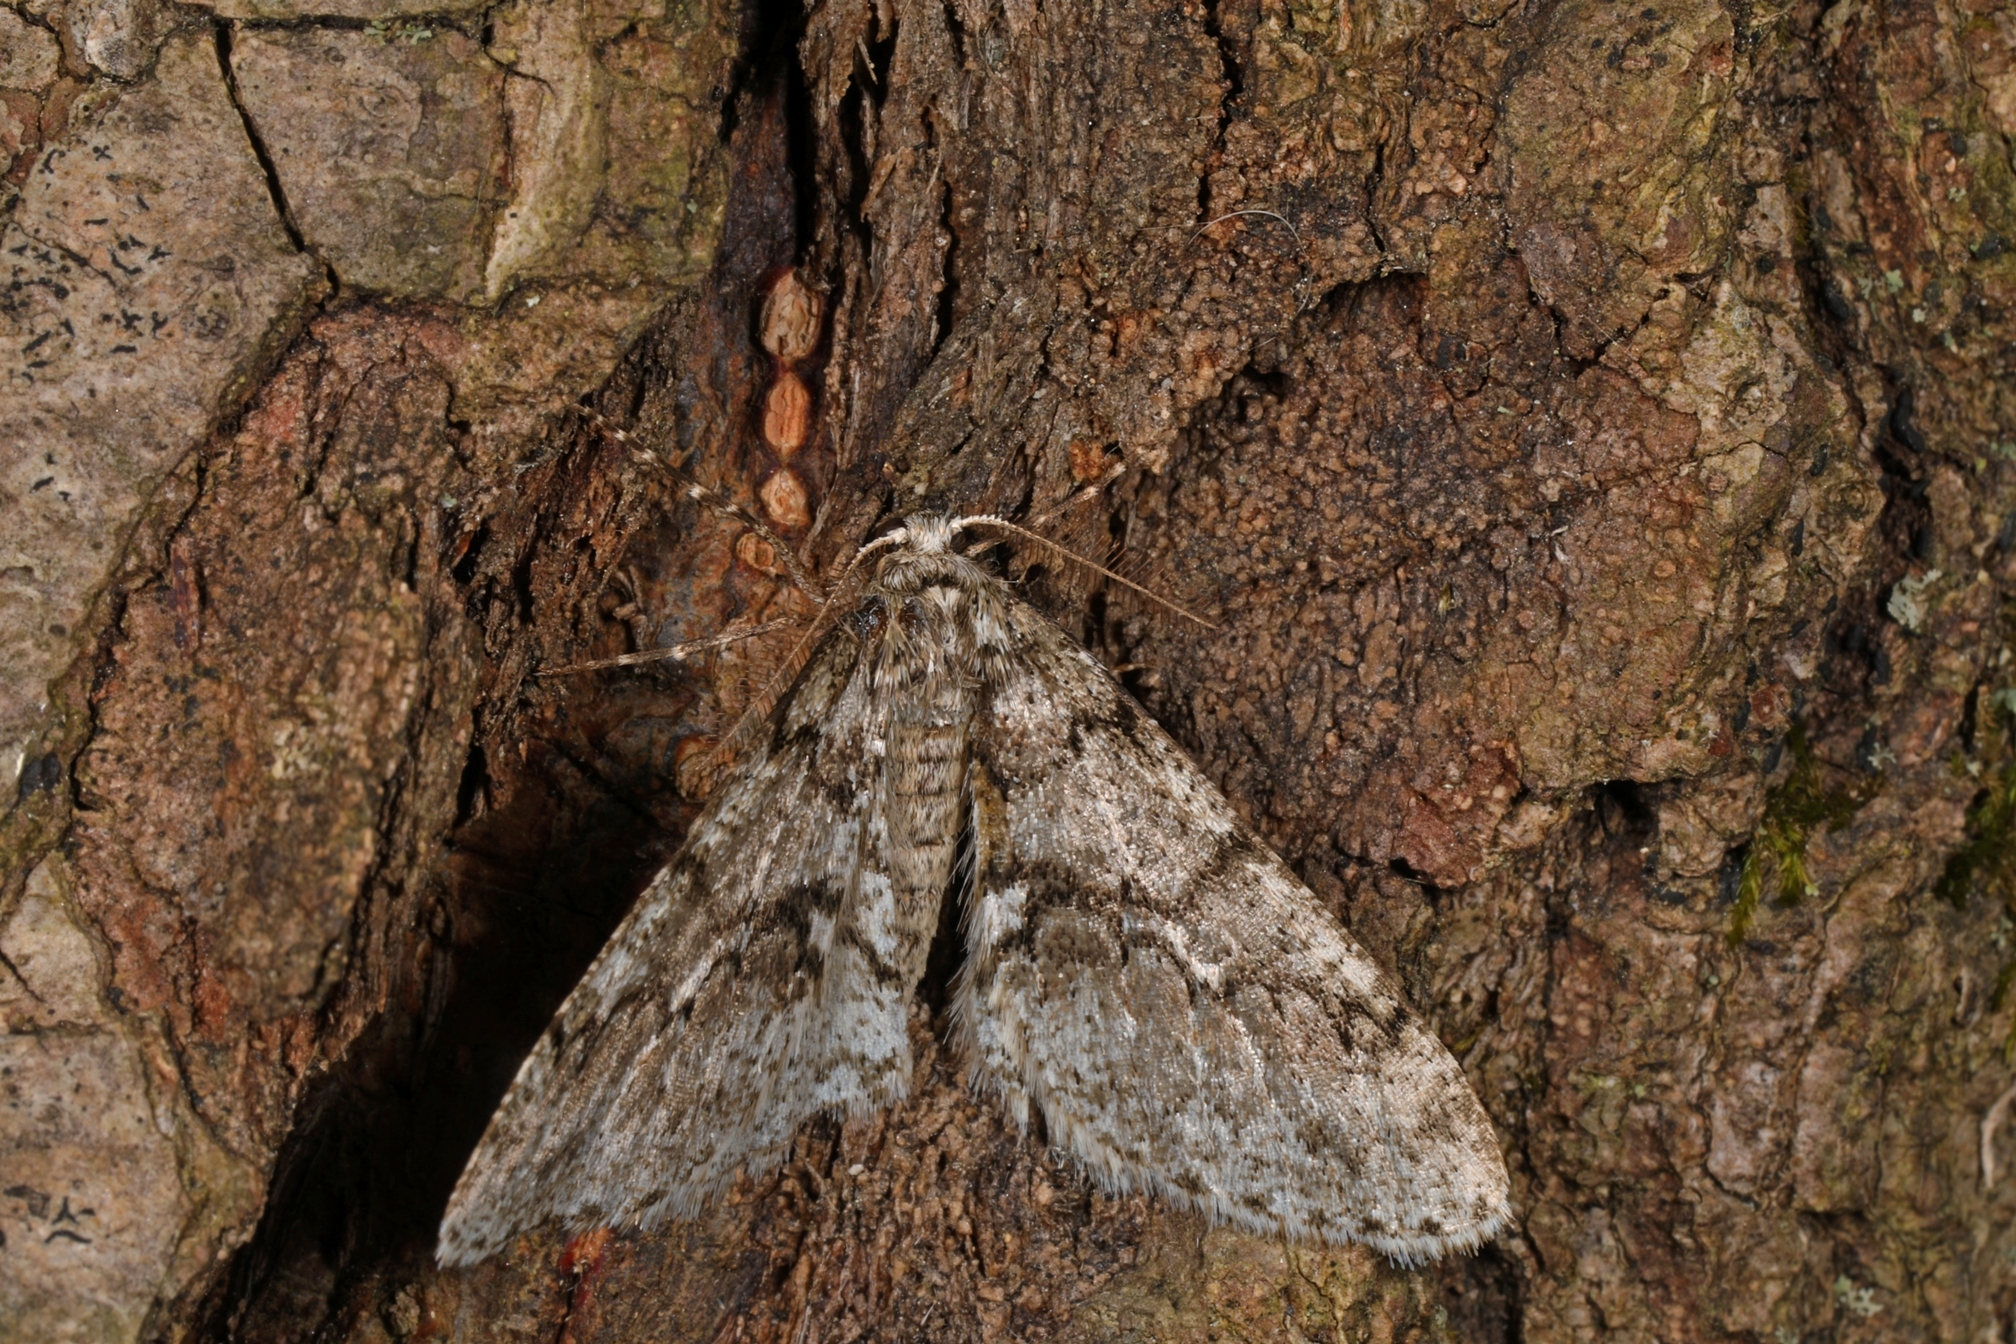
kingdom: Animalia
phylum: Arthropoda
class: Insecta
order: Lepidoptera
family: Geometridae
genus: Phigalia
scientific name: Phigalia denticulata
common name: Toothed phigalia
